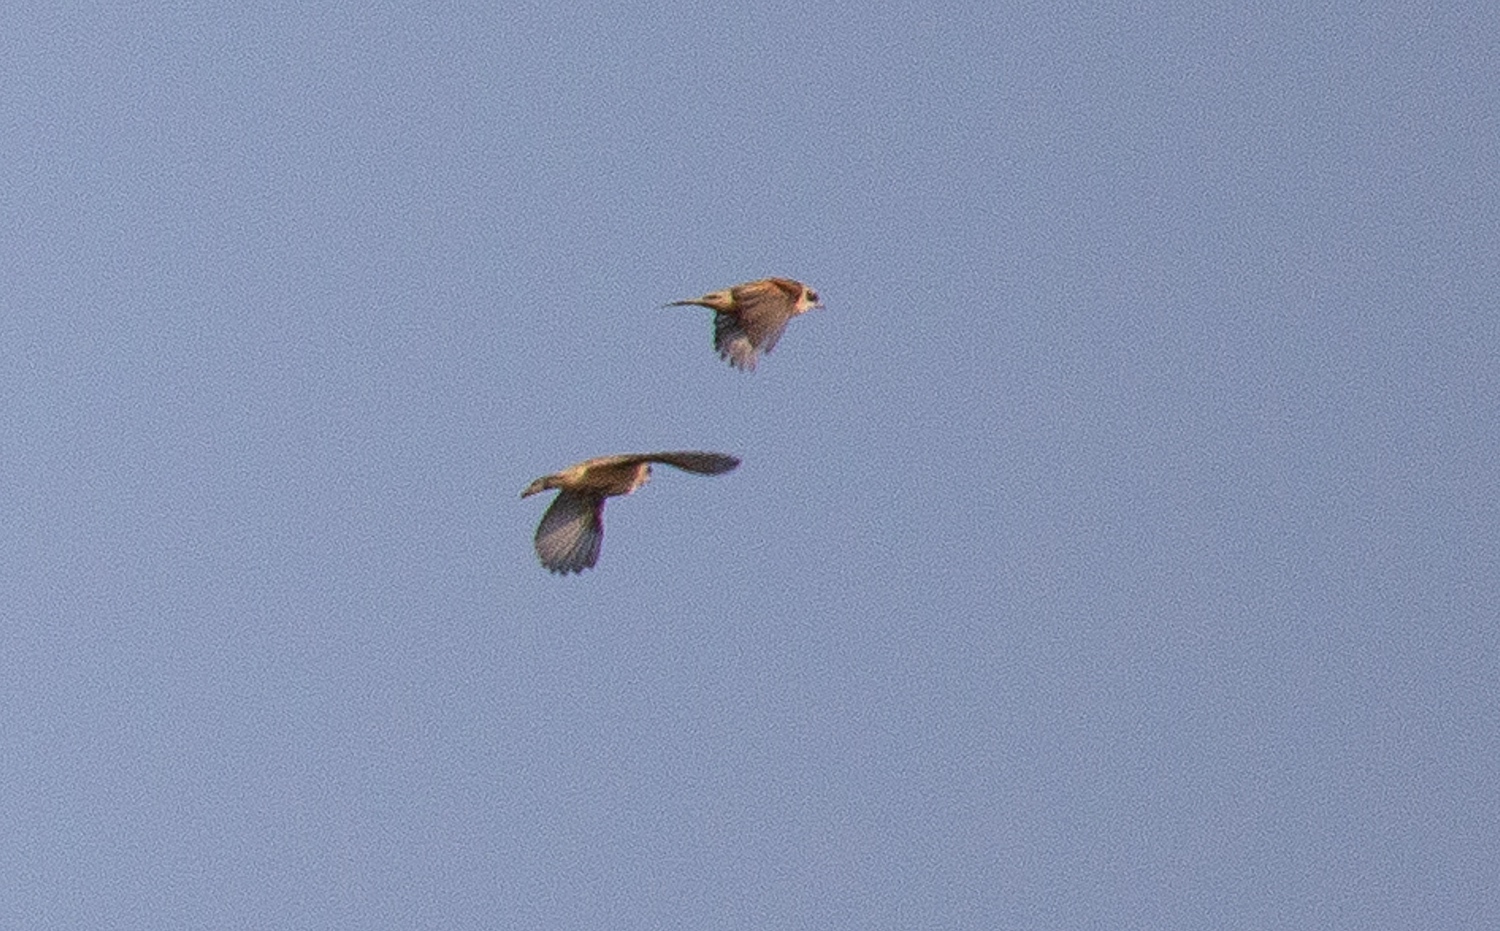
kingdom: Animalia
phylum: Chordata
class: Aves
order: Passeriformes
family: Remizidae
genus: Remiz
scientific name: Remiz pendulinus
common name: Eurasian penduline tit
